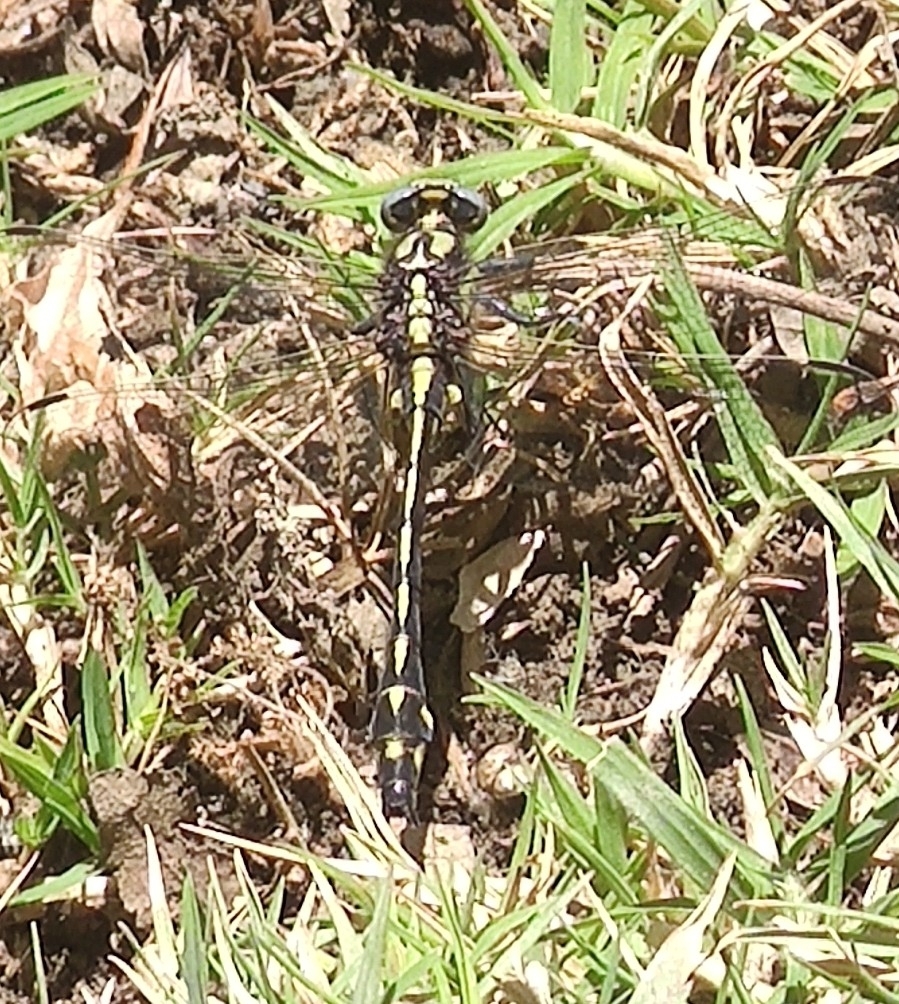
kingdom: Animalia
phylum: Arthropoda
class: Insecta
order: Odonata
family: Gomphidae
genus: Phanogomphus
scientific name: Phanogomphus kurilis
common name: Pacific clubtail
